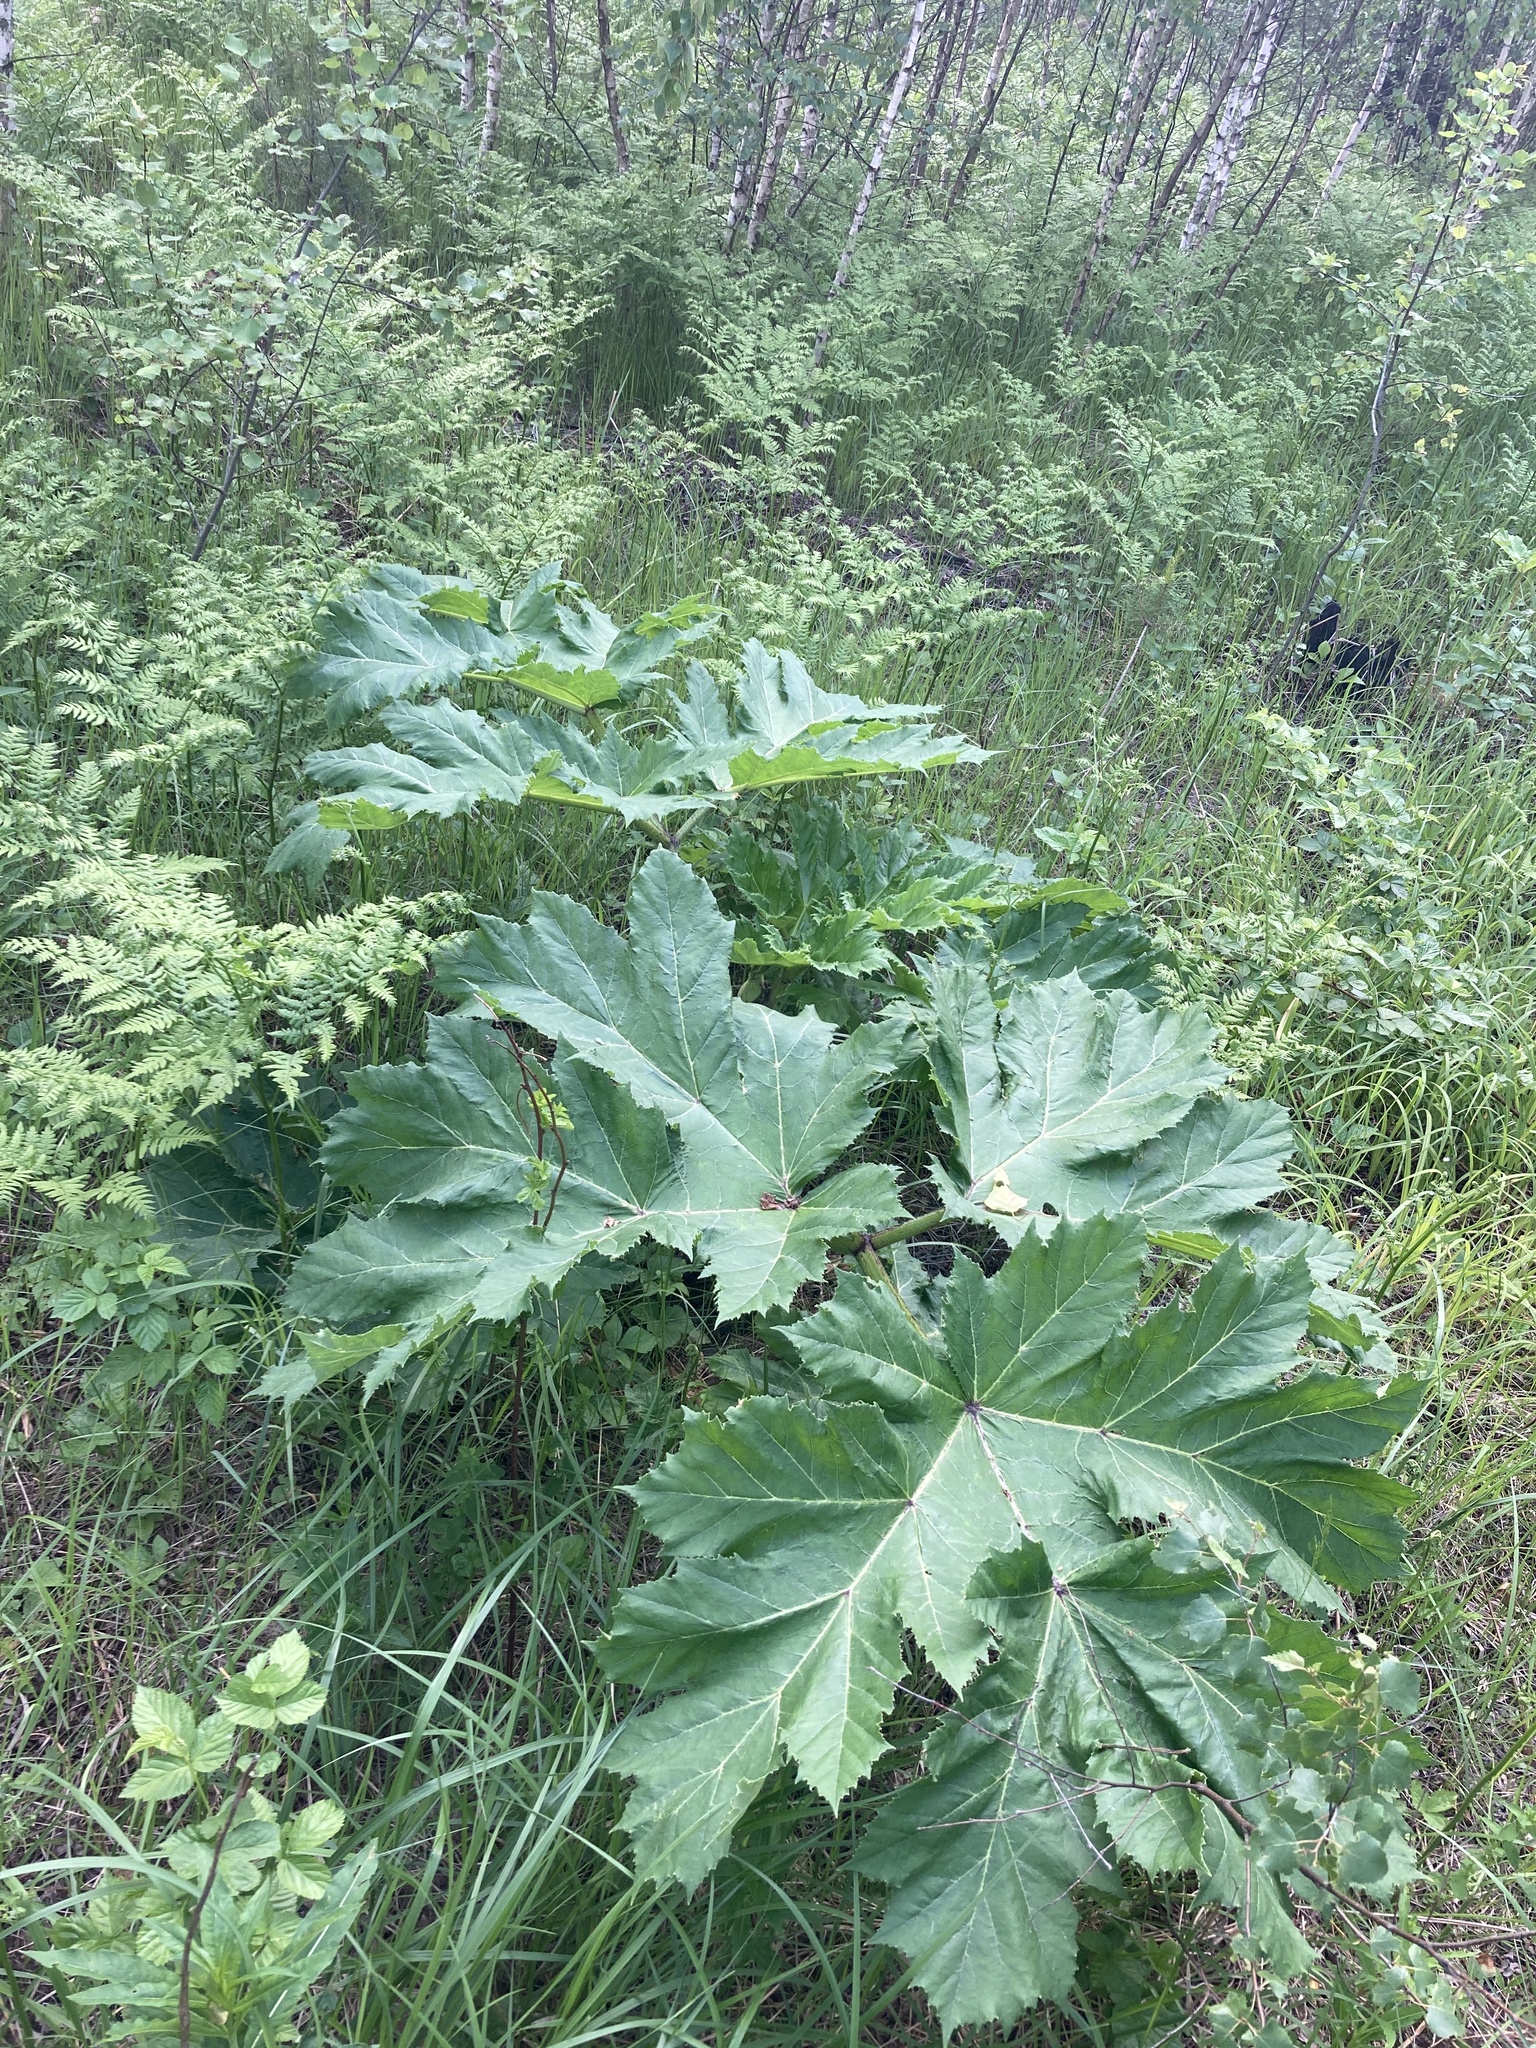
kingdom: Plantae
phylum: Tracheophyta
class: Magnoliopsida
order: Apiales
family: Apiaceae
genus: Heracleum
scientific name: Heracleum sosnowskyi
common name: Sosnowsky's hogweed
